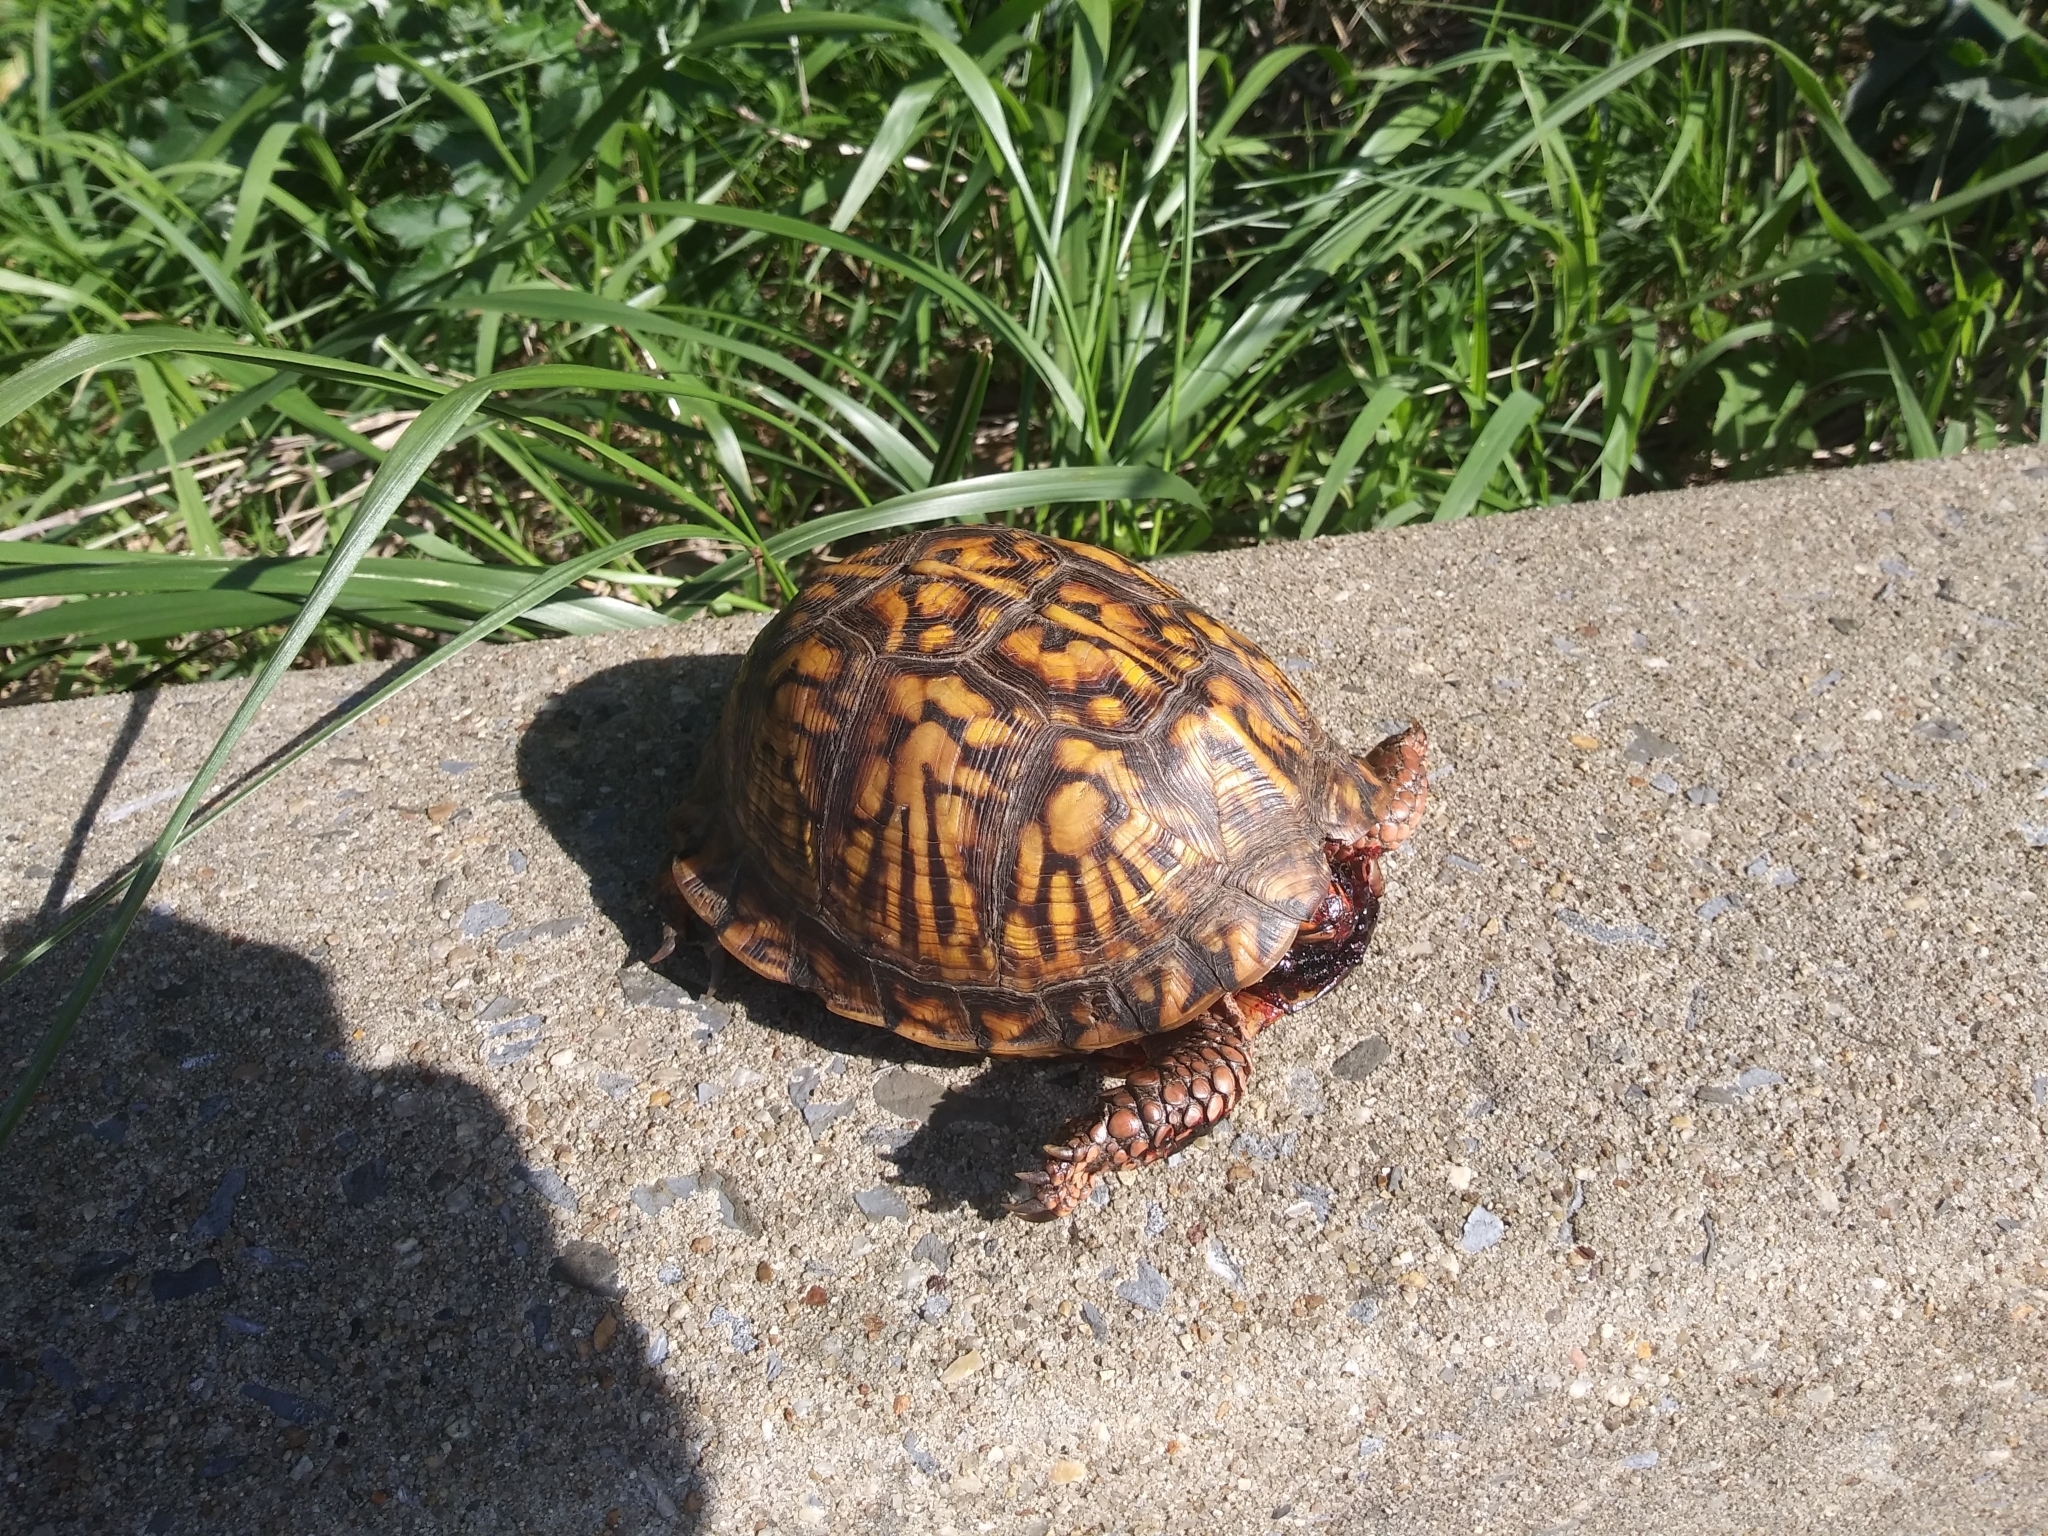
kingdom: Animalia
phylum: Chordata
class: Testudines
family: Emydidae
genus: Terrapene
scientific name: Terrapene carolina
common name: Common box turtle
